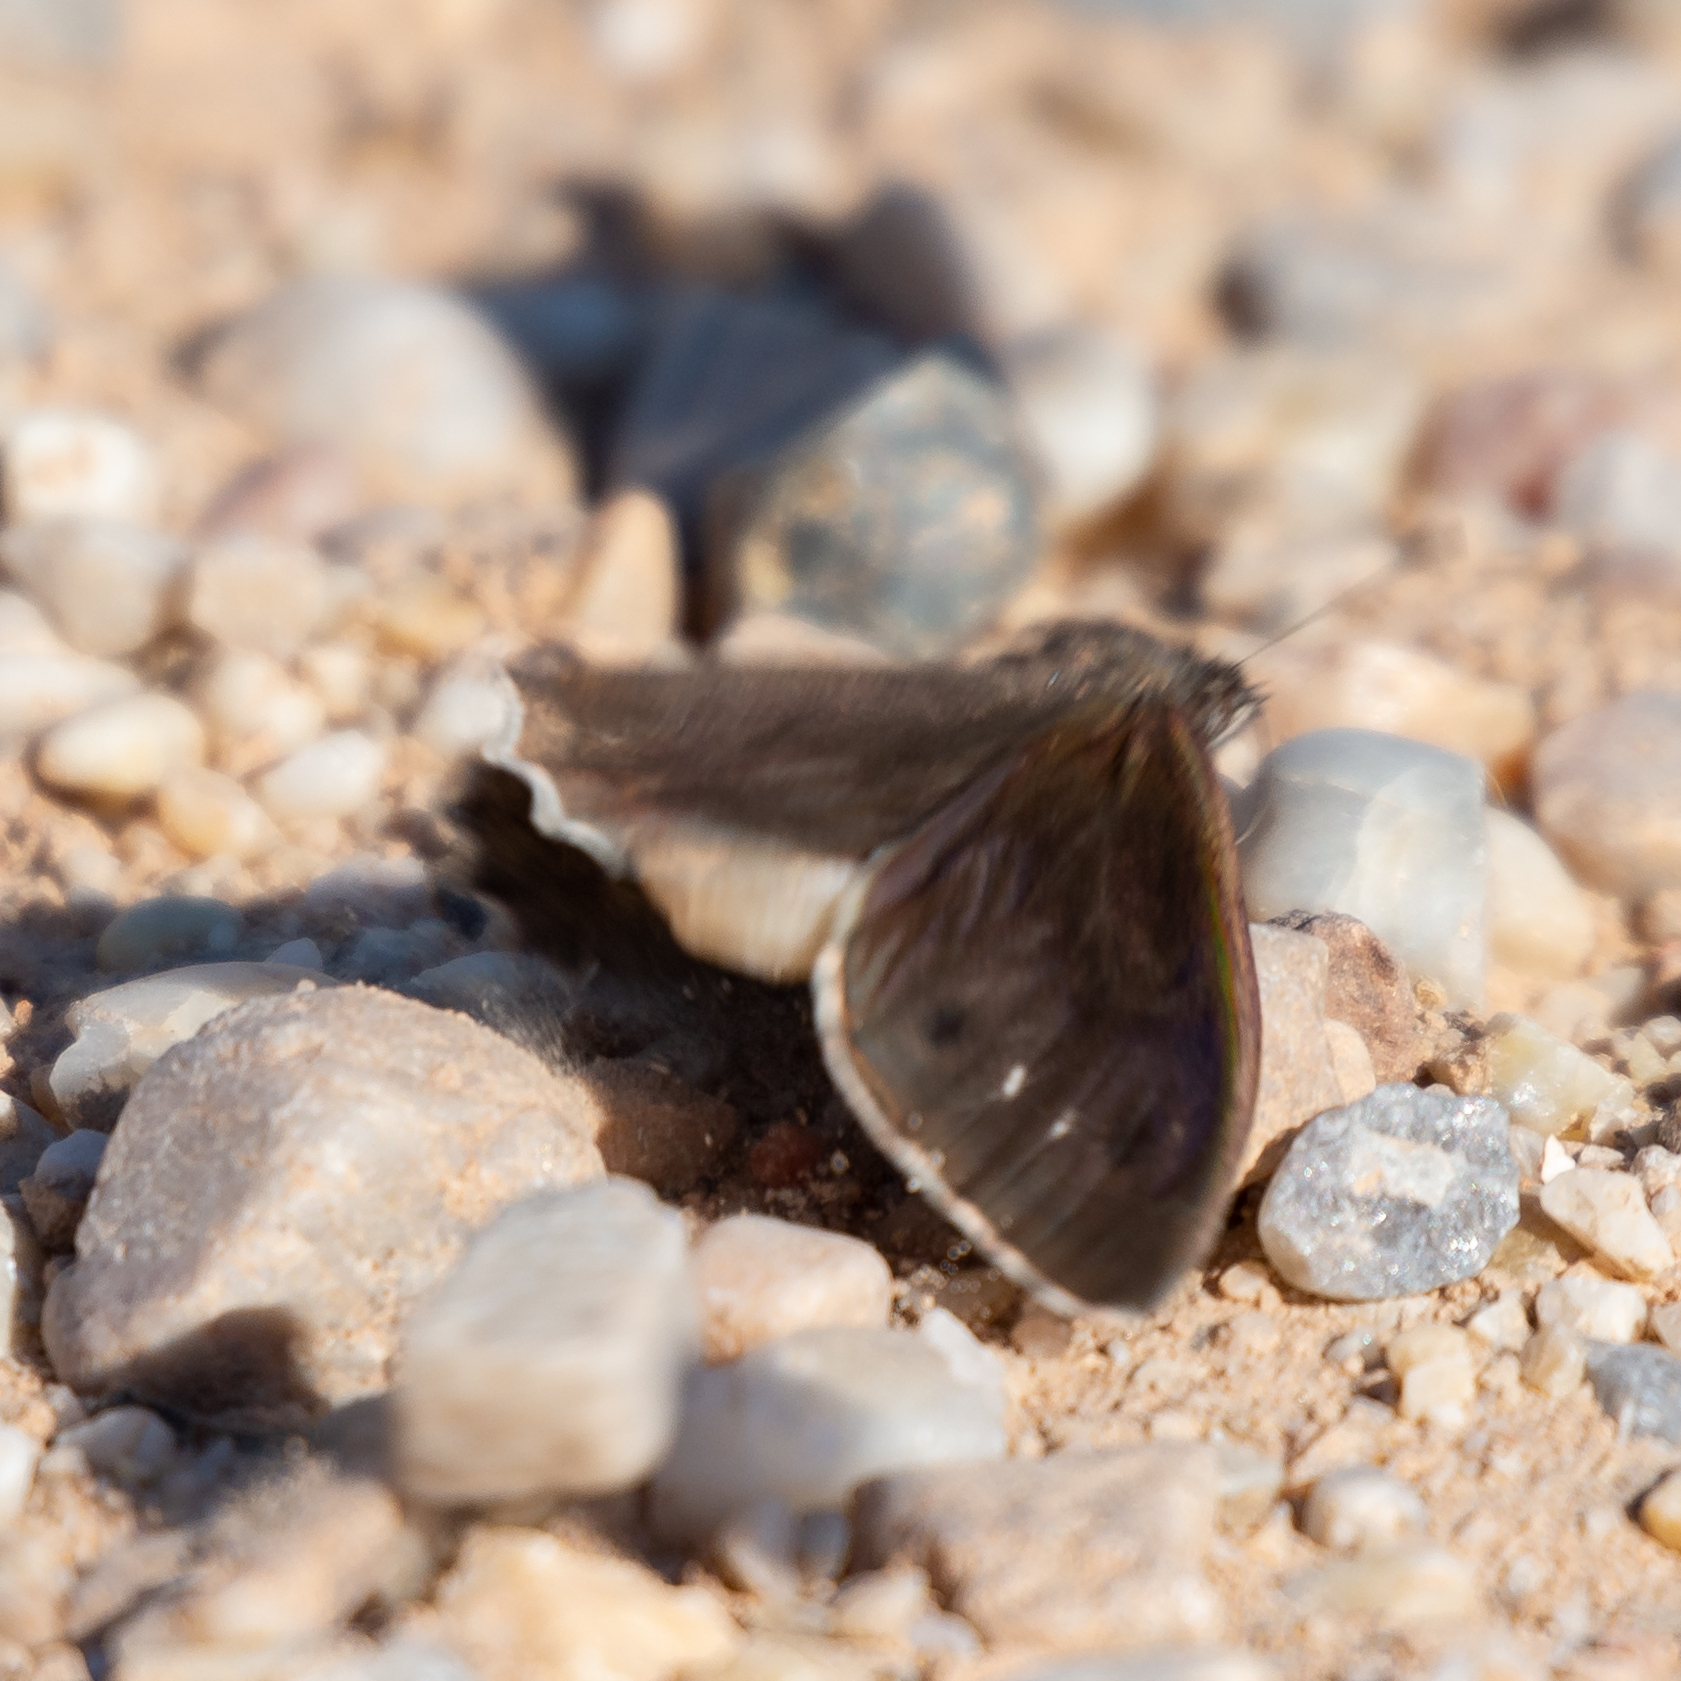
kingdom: Animalia
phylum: Arthropoda
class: Insecta
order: Lepidoptera
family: Nymphalidae
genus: Hipparchia
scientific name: Hipparchia statilinus
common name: Tree grayling
